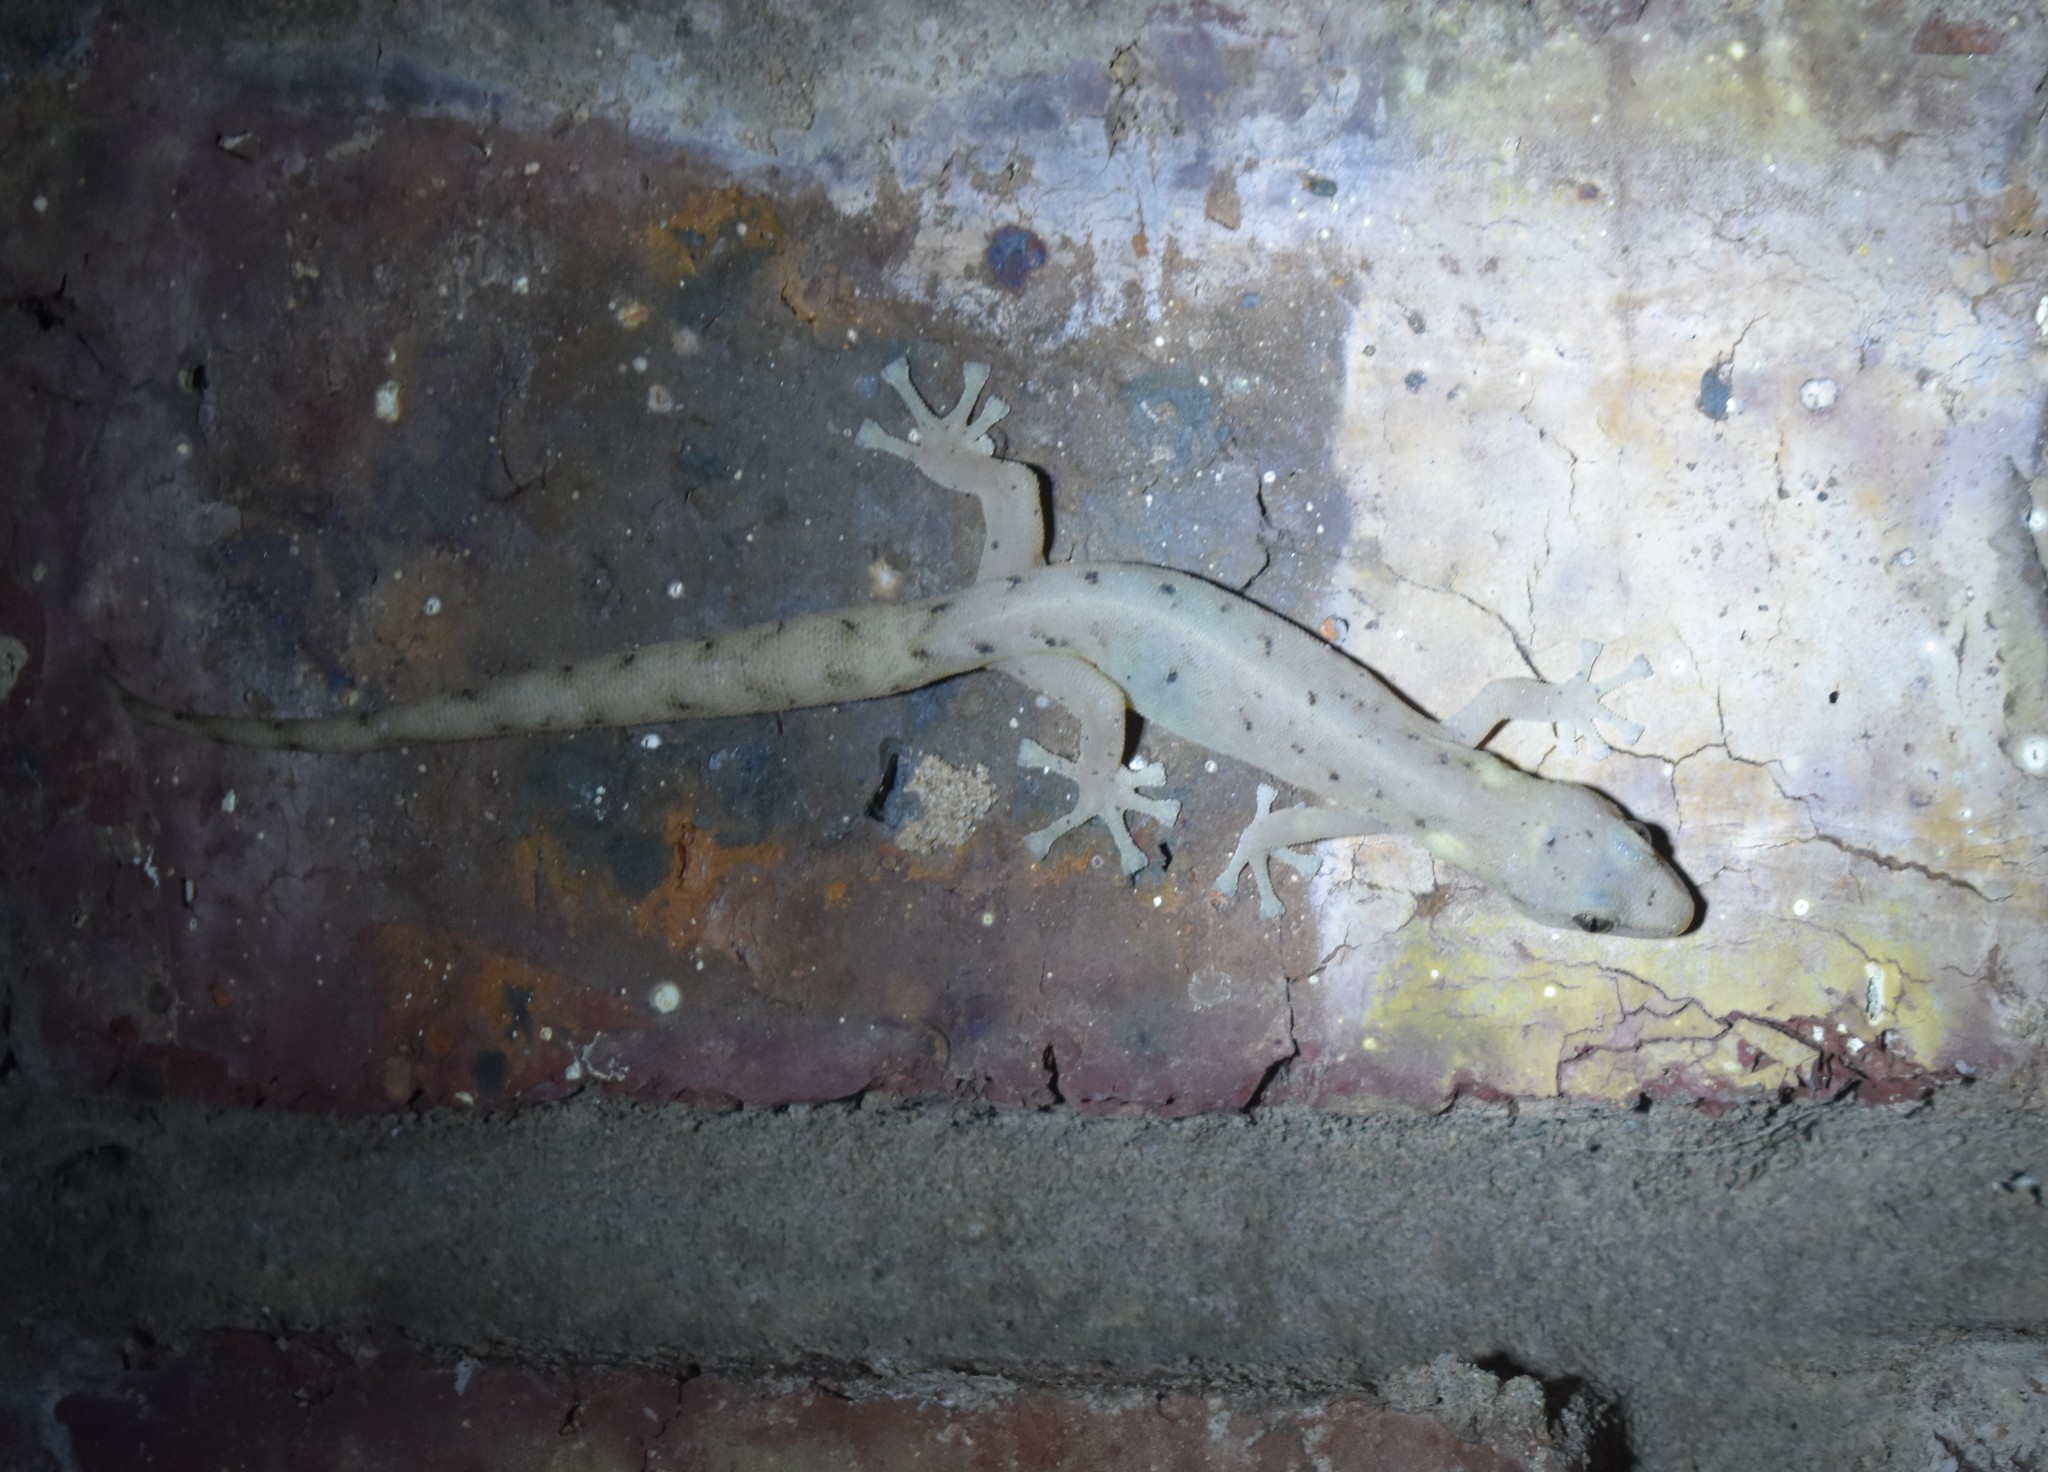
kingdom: Animalia
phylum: Chordata
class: Squamata
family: Gekkonidae
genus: Afrogecko
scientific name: Afrogecko porphyreus
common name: Marbled leaf-toed gecko
